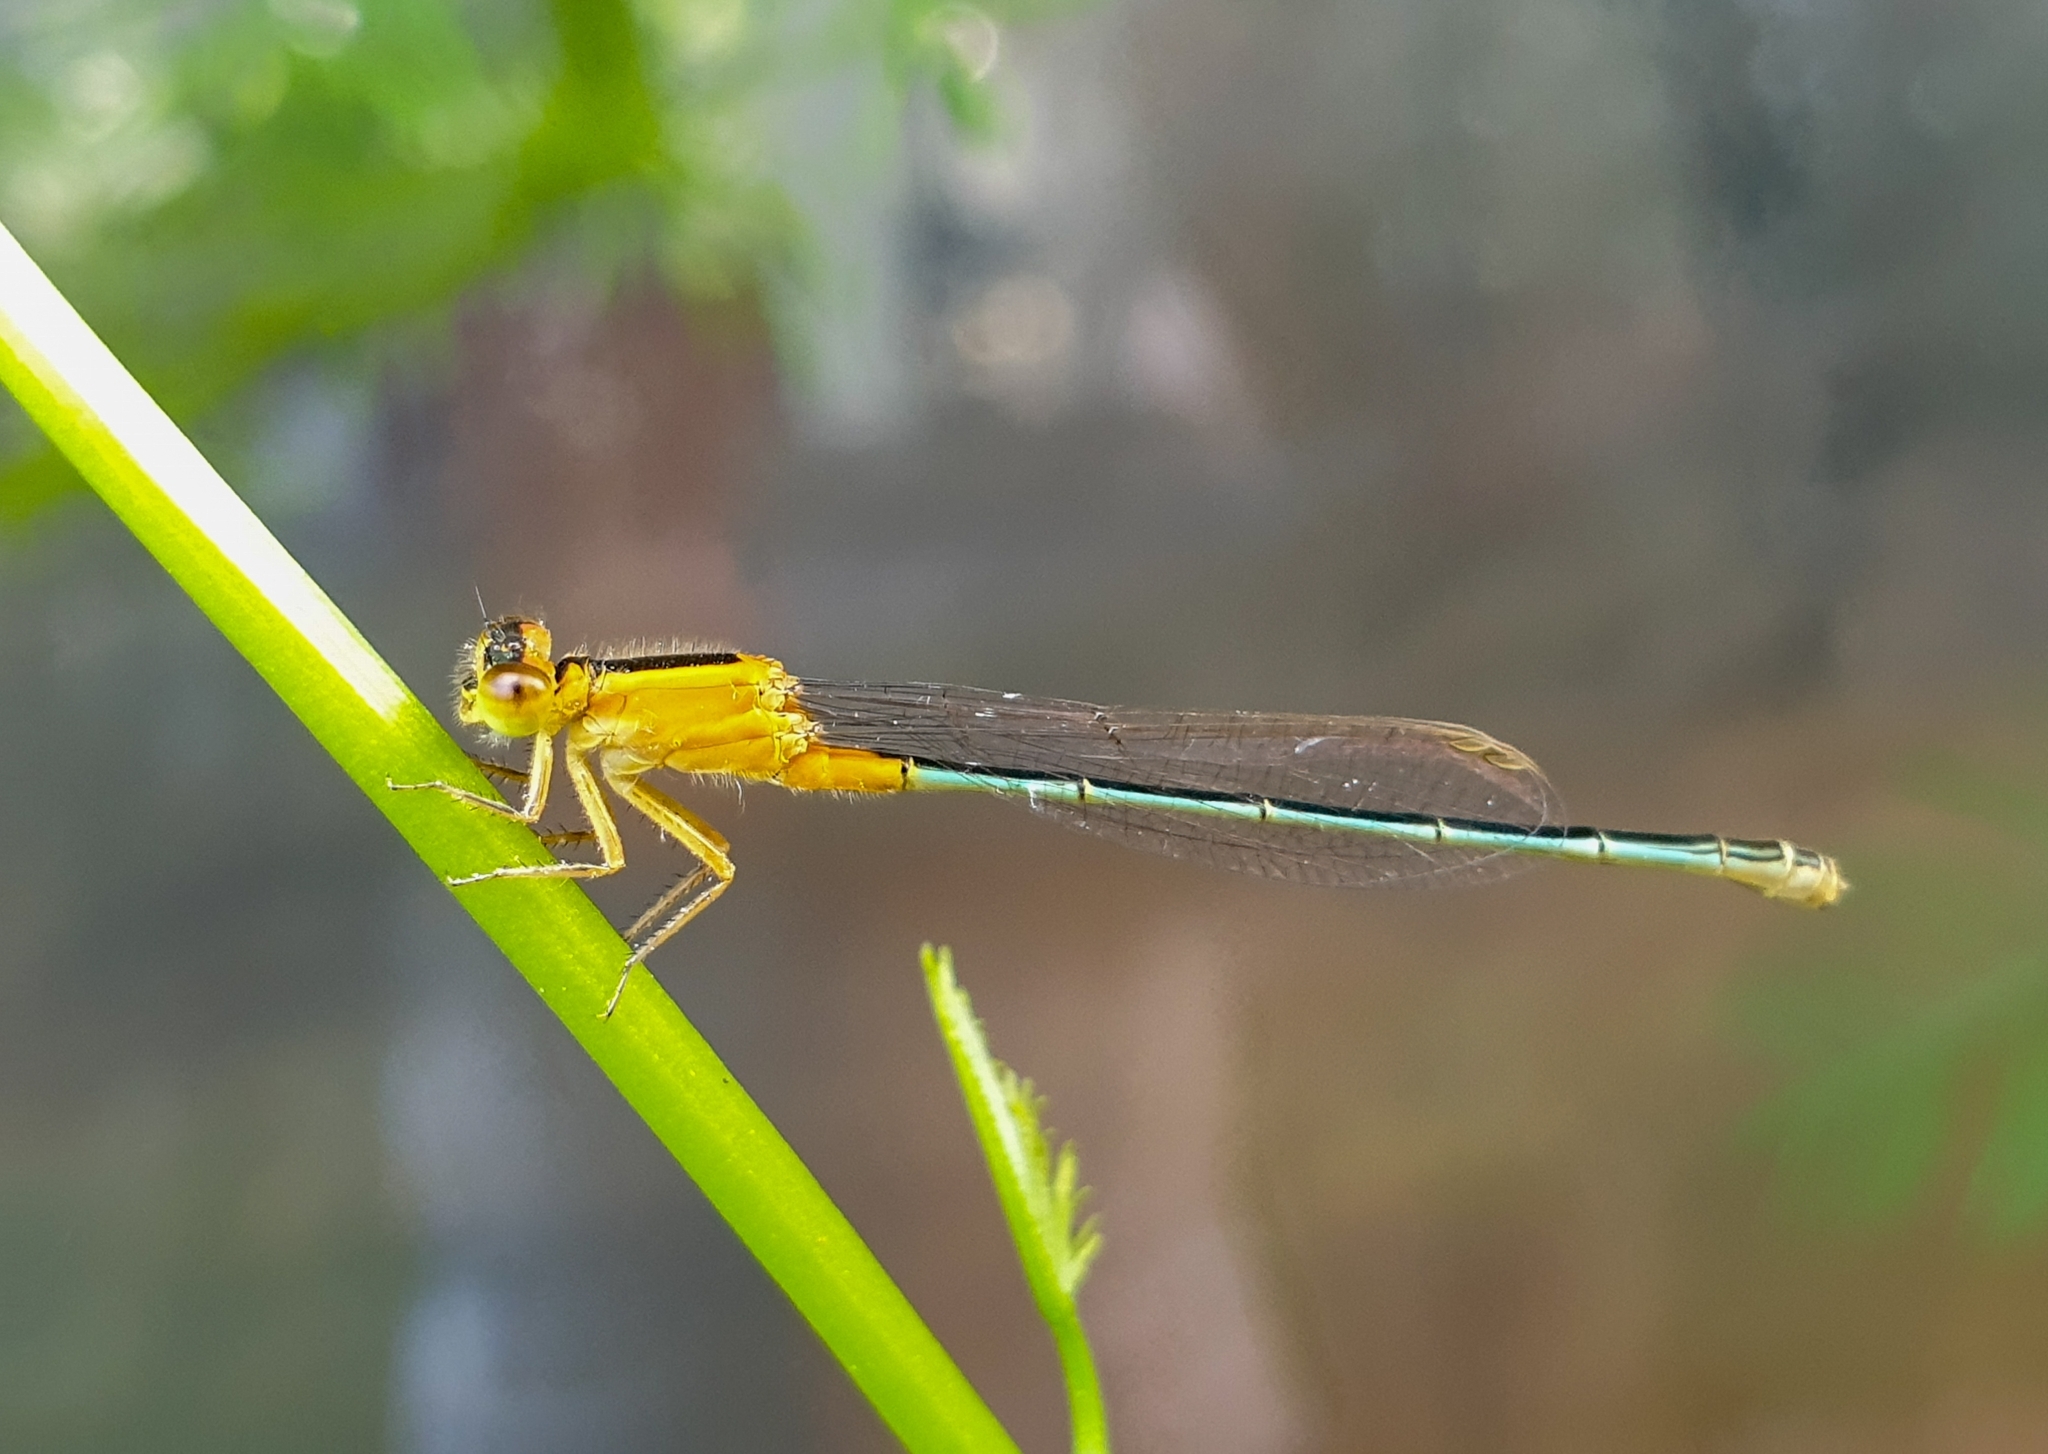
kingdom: Animalia
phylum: Arthropoda
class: Insecta
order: Odonata
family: Coenagrionidae
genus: Ischnura
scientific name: Ischnura senegalensis
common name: Tropical bluetail
